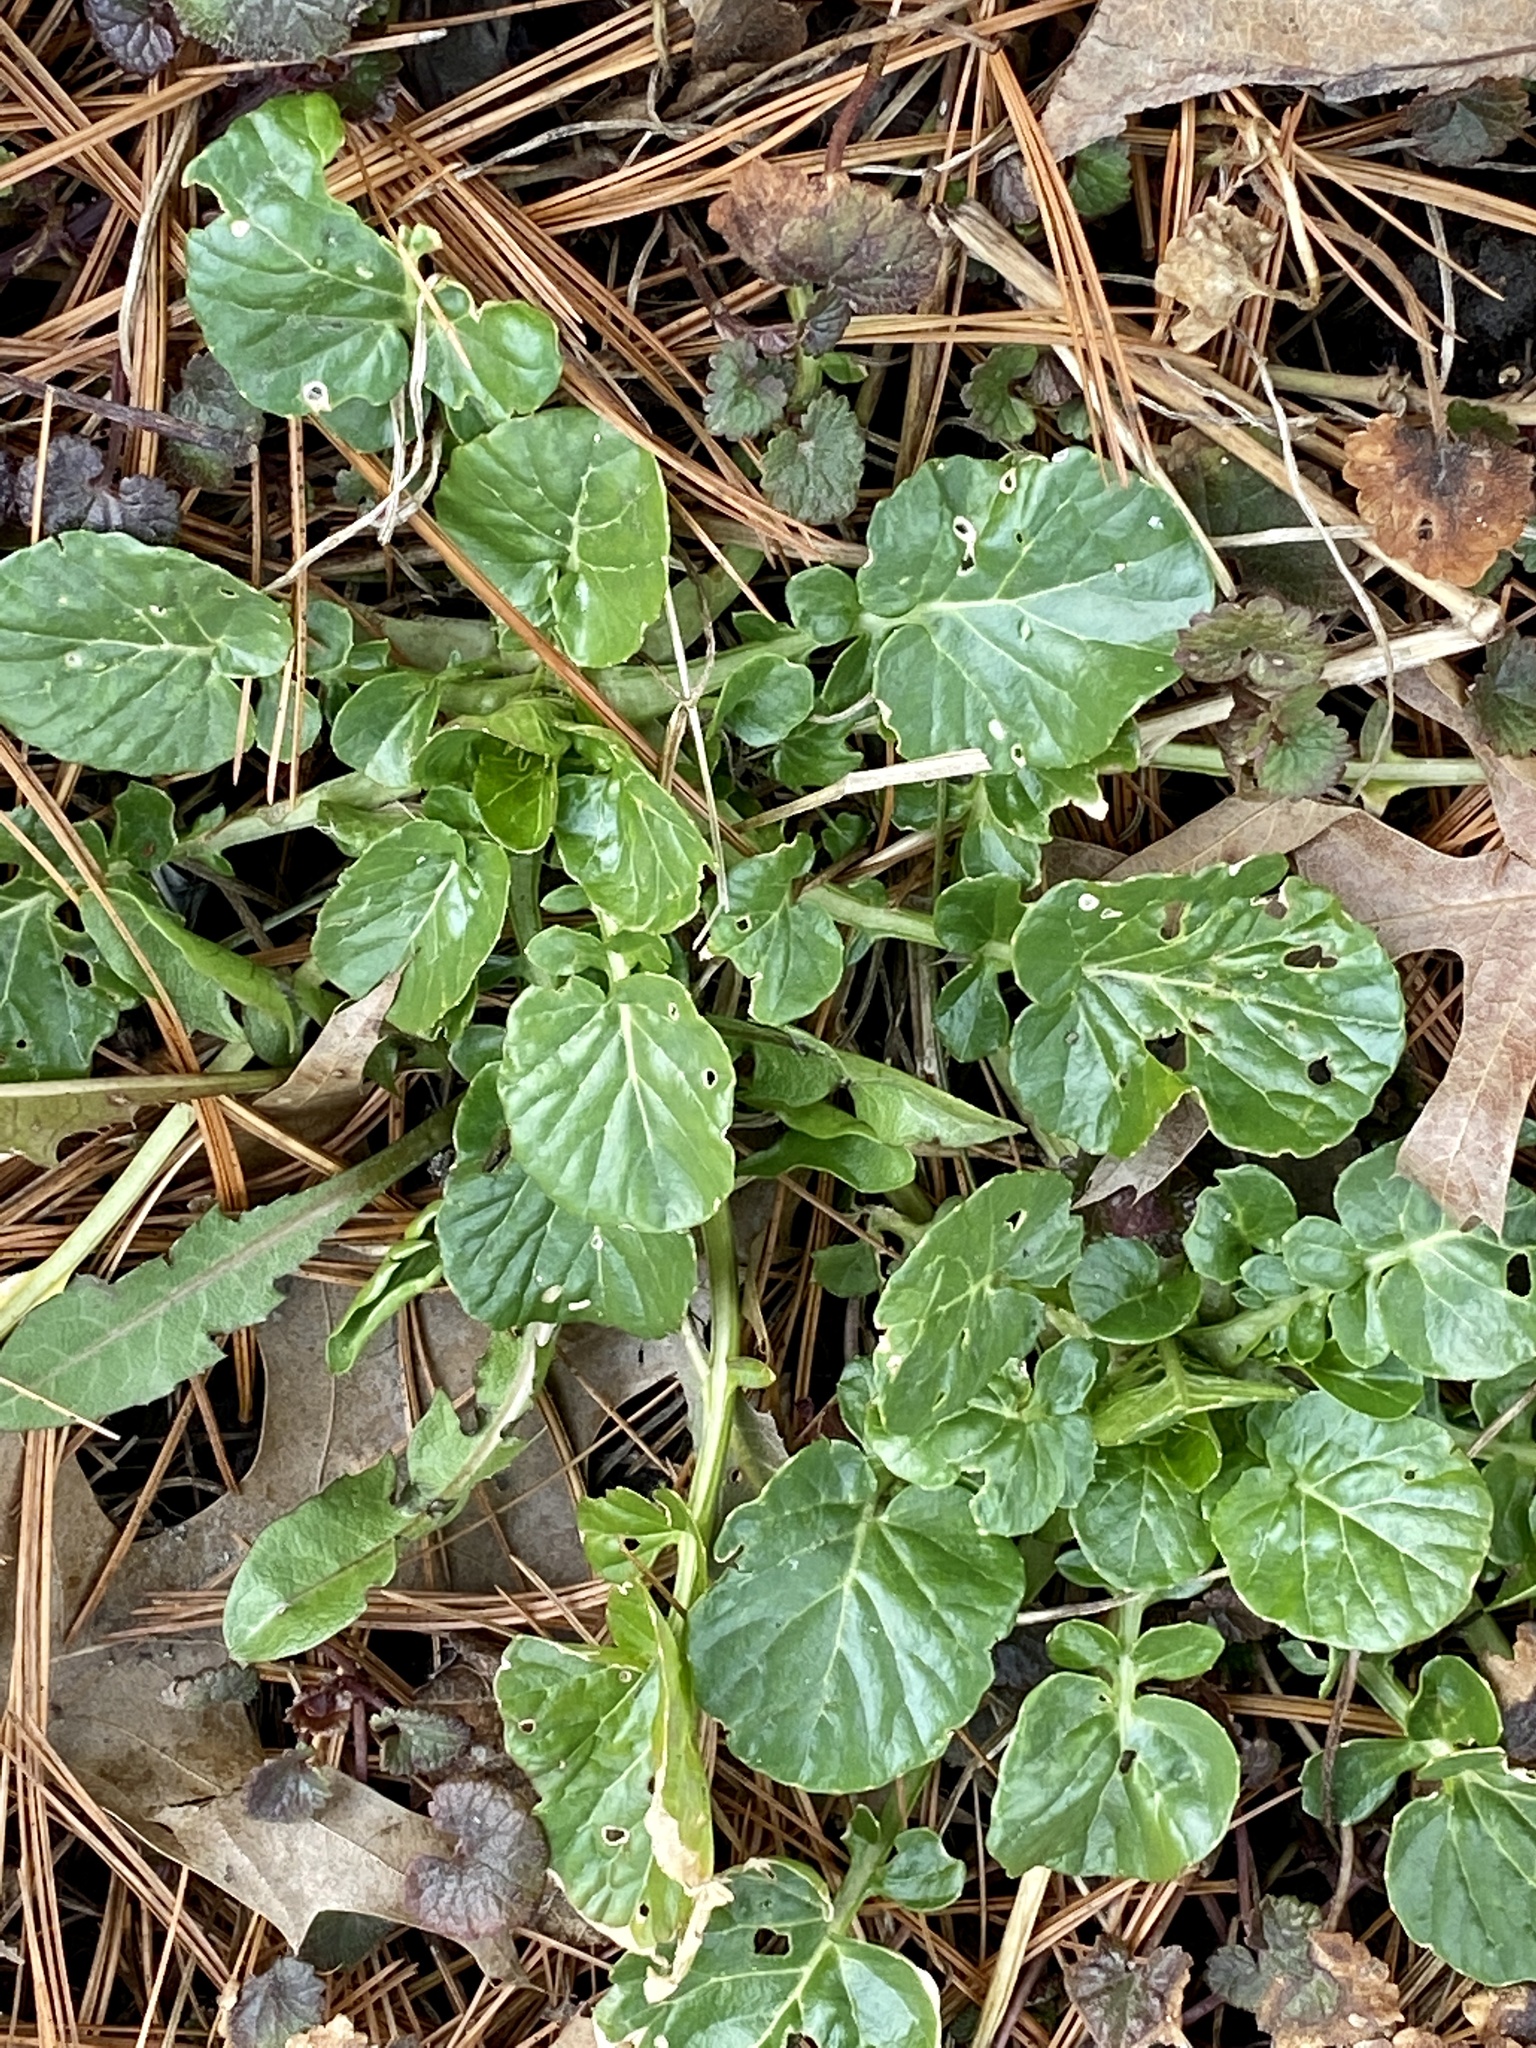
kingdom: Plantae
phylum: Tracheophyta
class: Magnoliopsida
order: Brassicales
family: Brassicaceae
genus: Barbarea
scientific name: Barbarea vulgaris
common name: Cressy-greens
